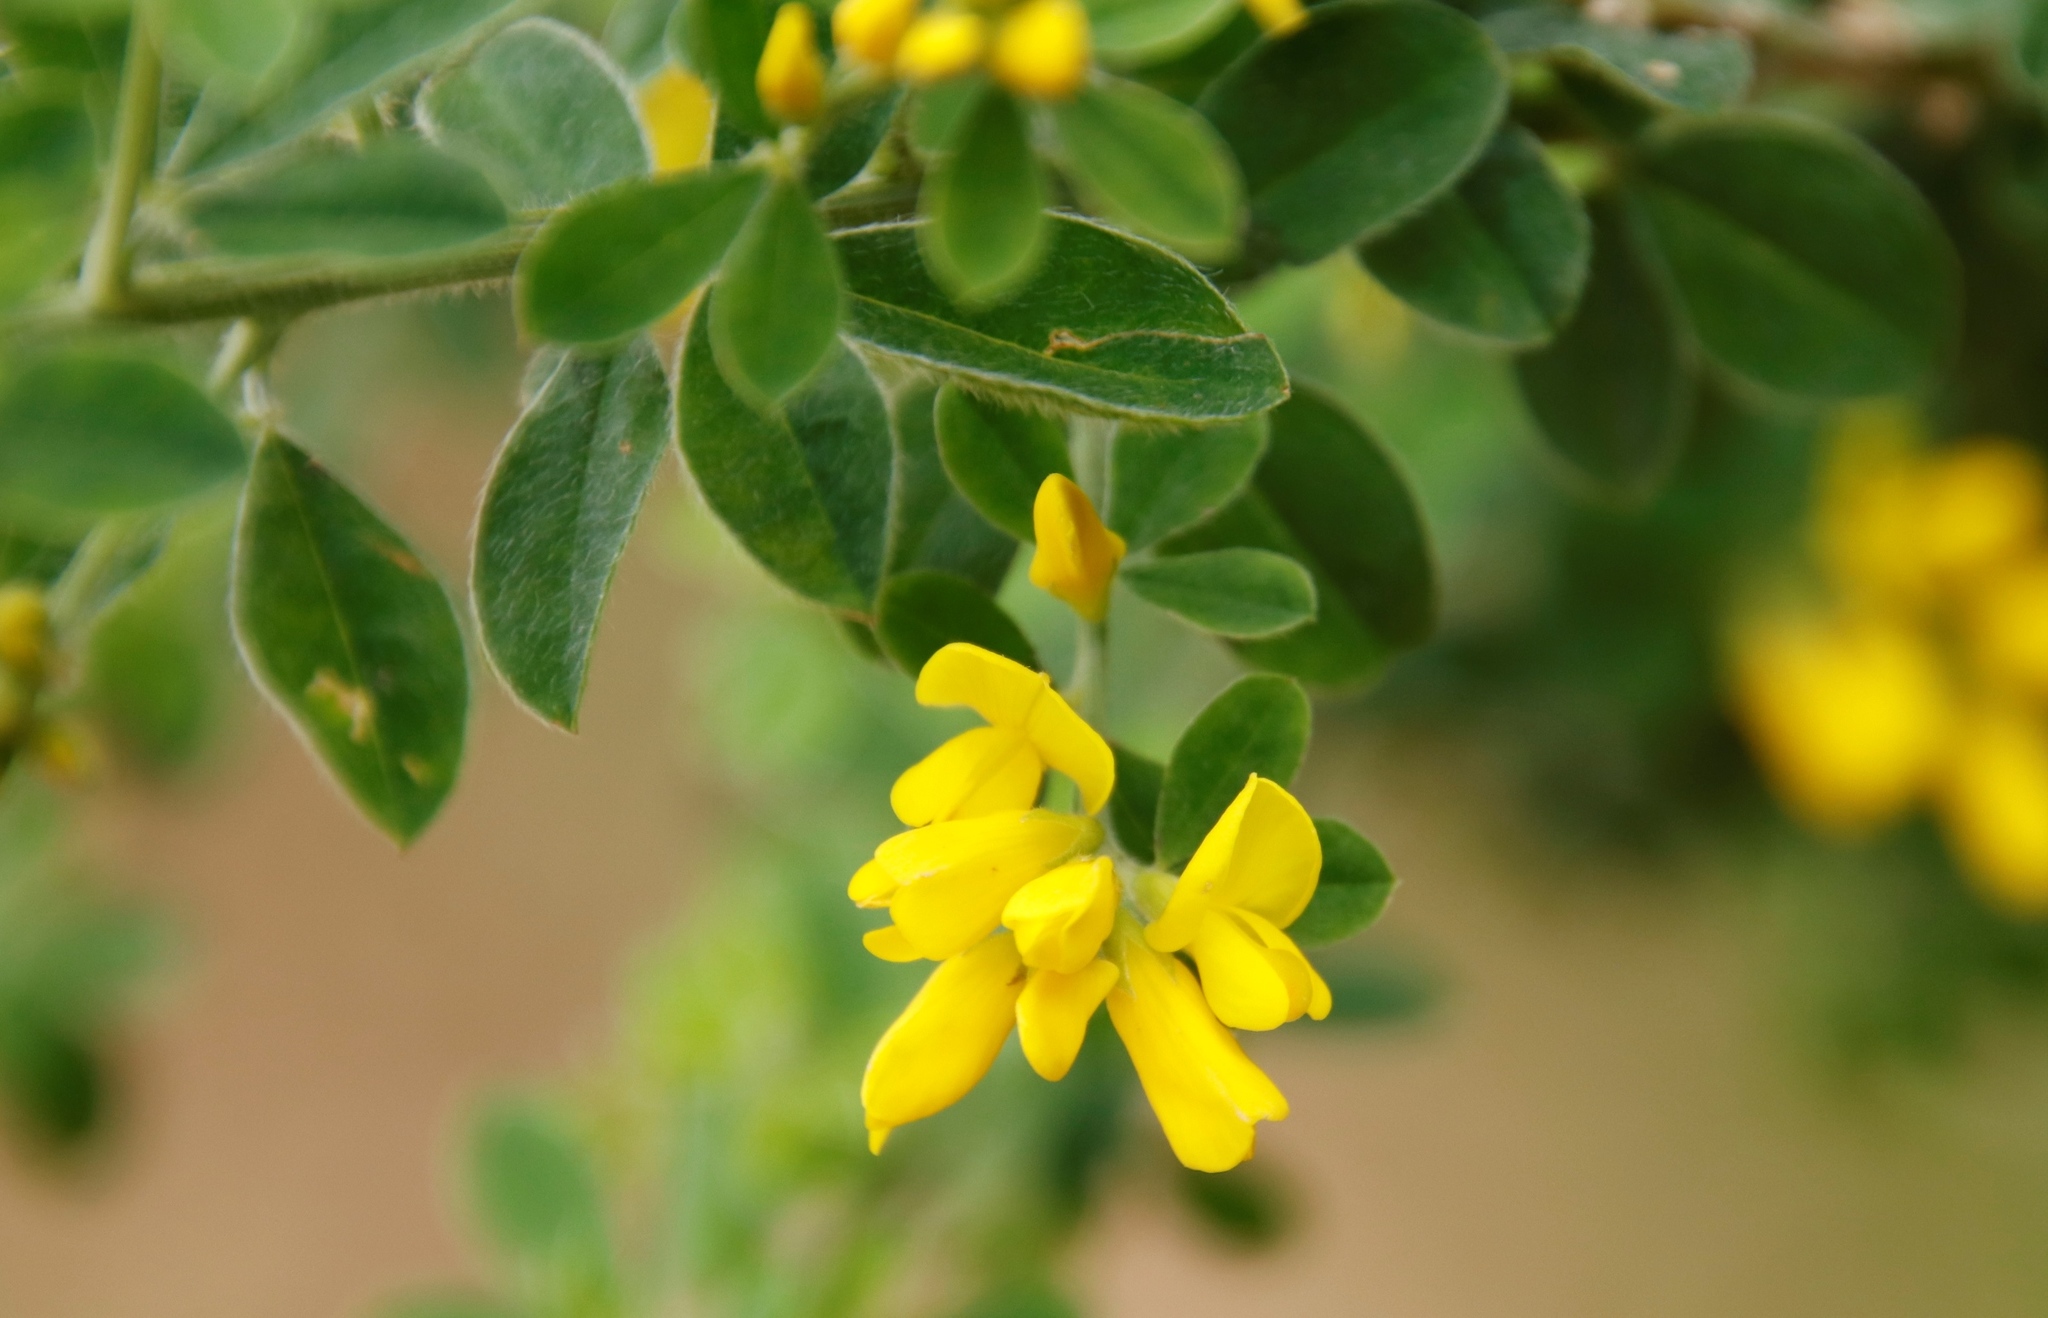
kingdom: Plantae
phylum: Tracheophyta
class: Magnoliopsida
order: Fabales
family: Fabaceae
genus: Genista
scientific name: Genista monspessulana
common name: Montpellier broom
